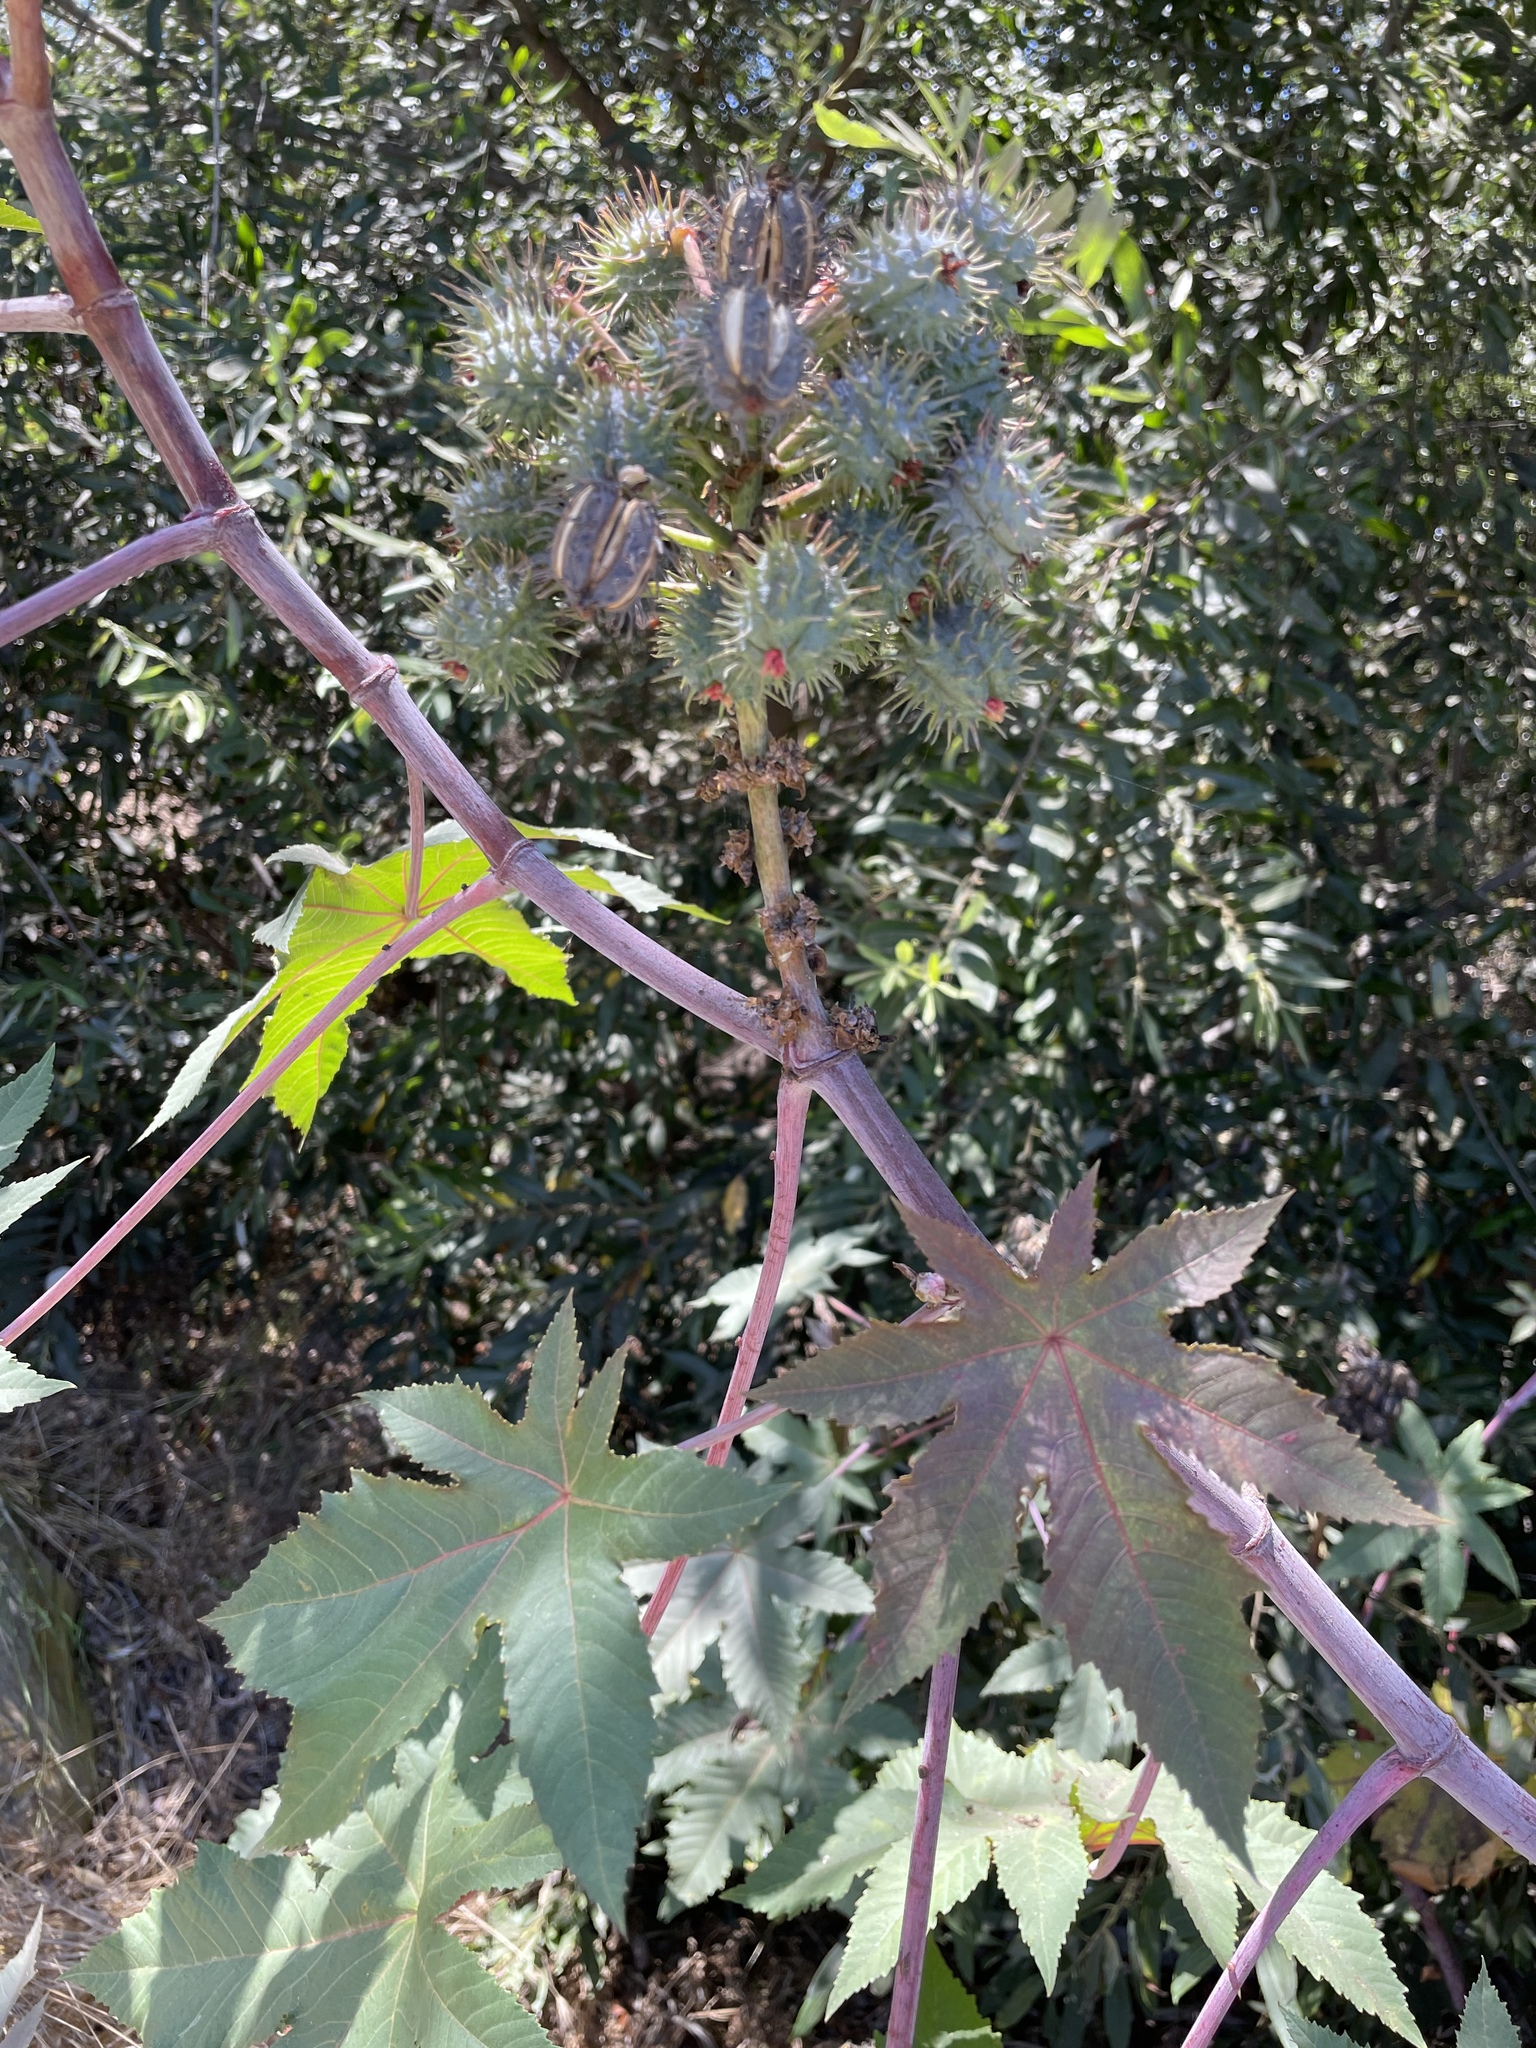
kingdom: Plantae
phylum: Tracheophyta
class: Magnoliopsida
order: Malpighiales
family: Euphorbiaceae
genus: Ricinus
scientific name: Ricinus communis
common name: Castor-oil-plant
